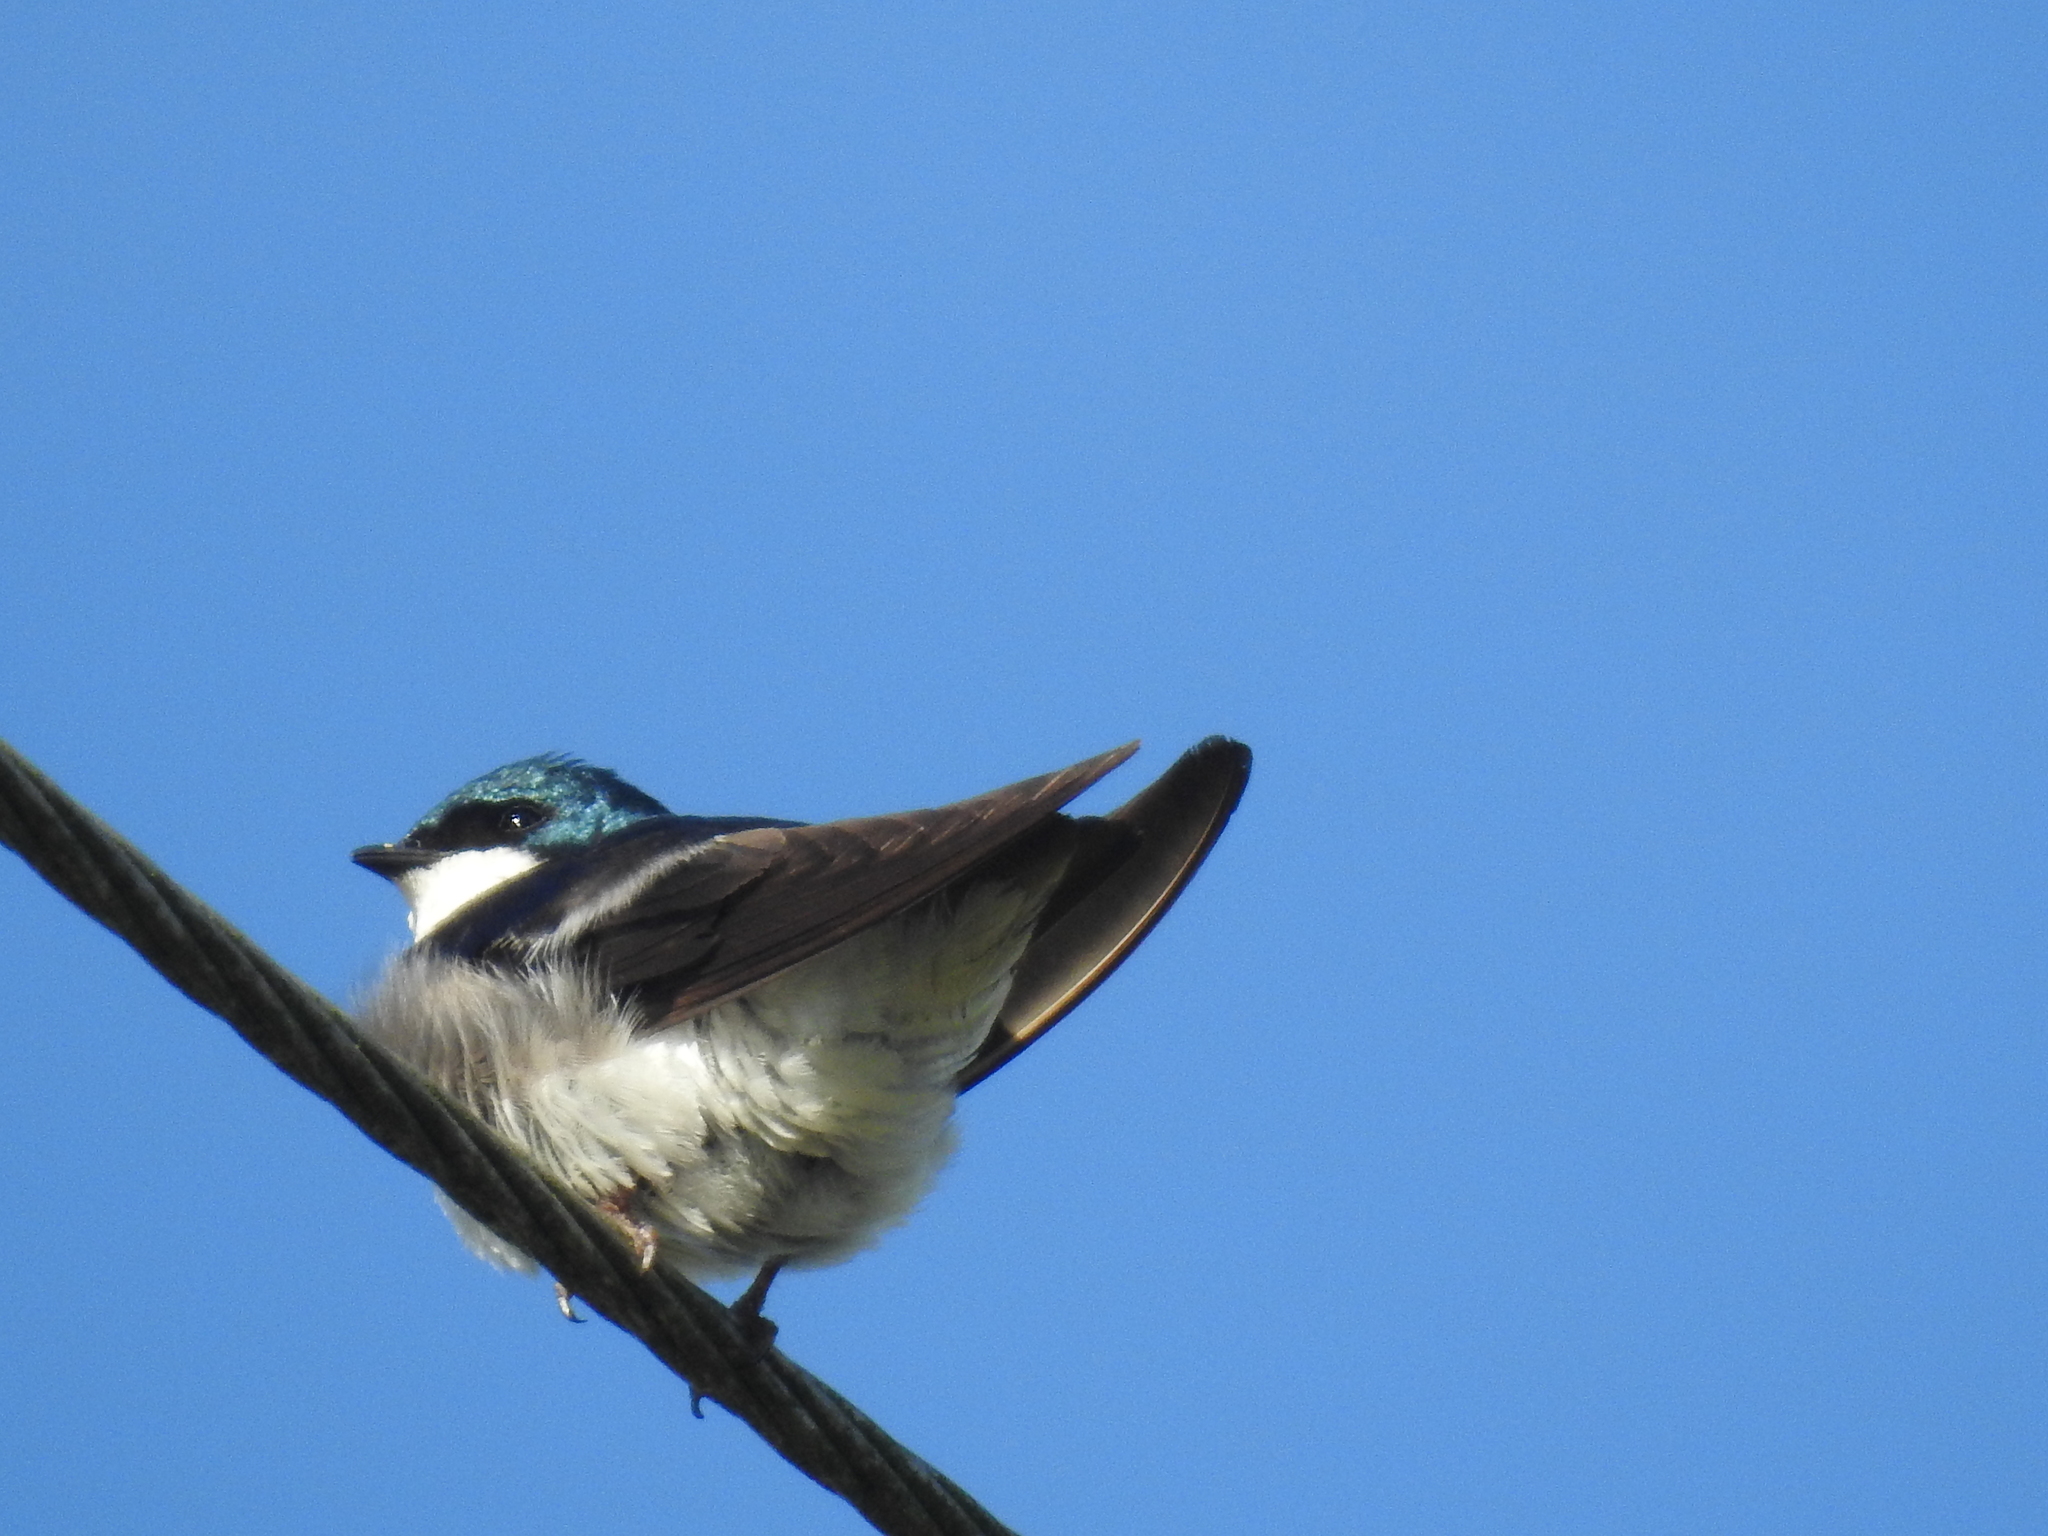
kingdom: Animalia
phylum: Chordata
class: Aves
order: Passeriformes
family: Hirundinidae
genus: Tachycineta
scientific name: Tachycineta bicolor
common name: Tree swallow
